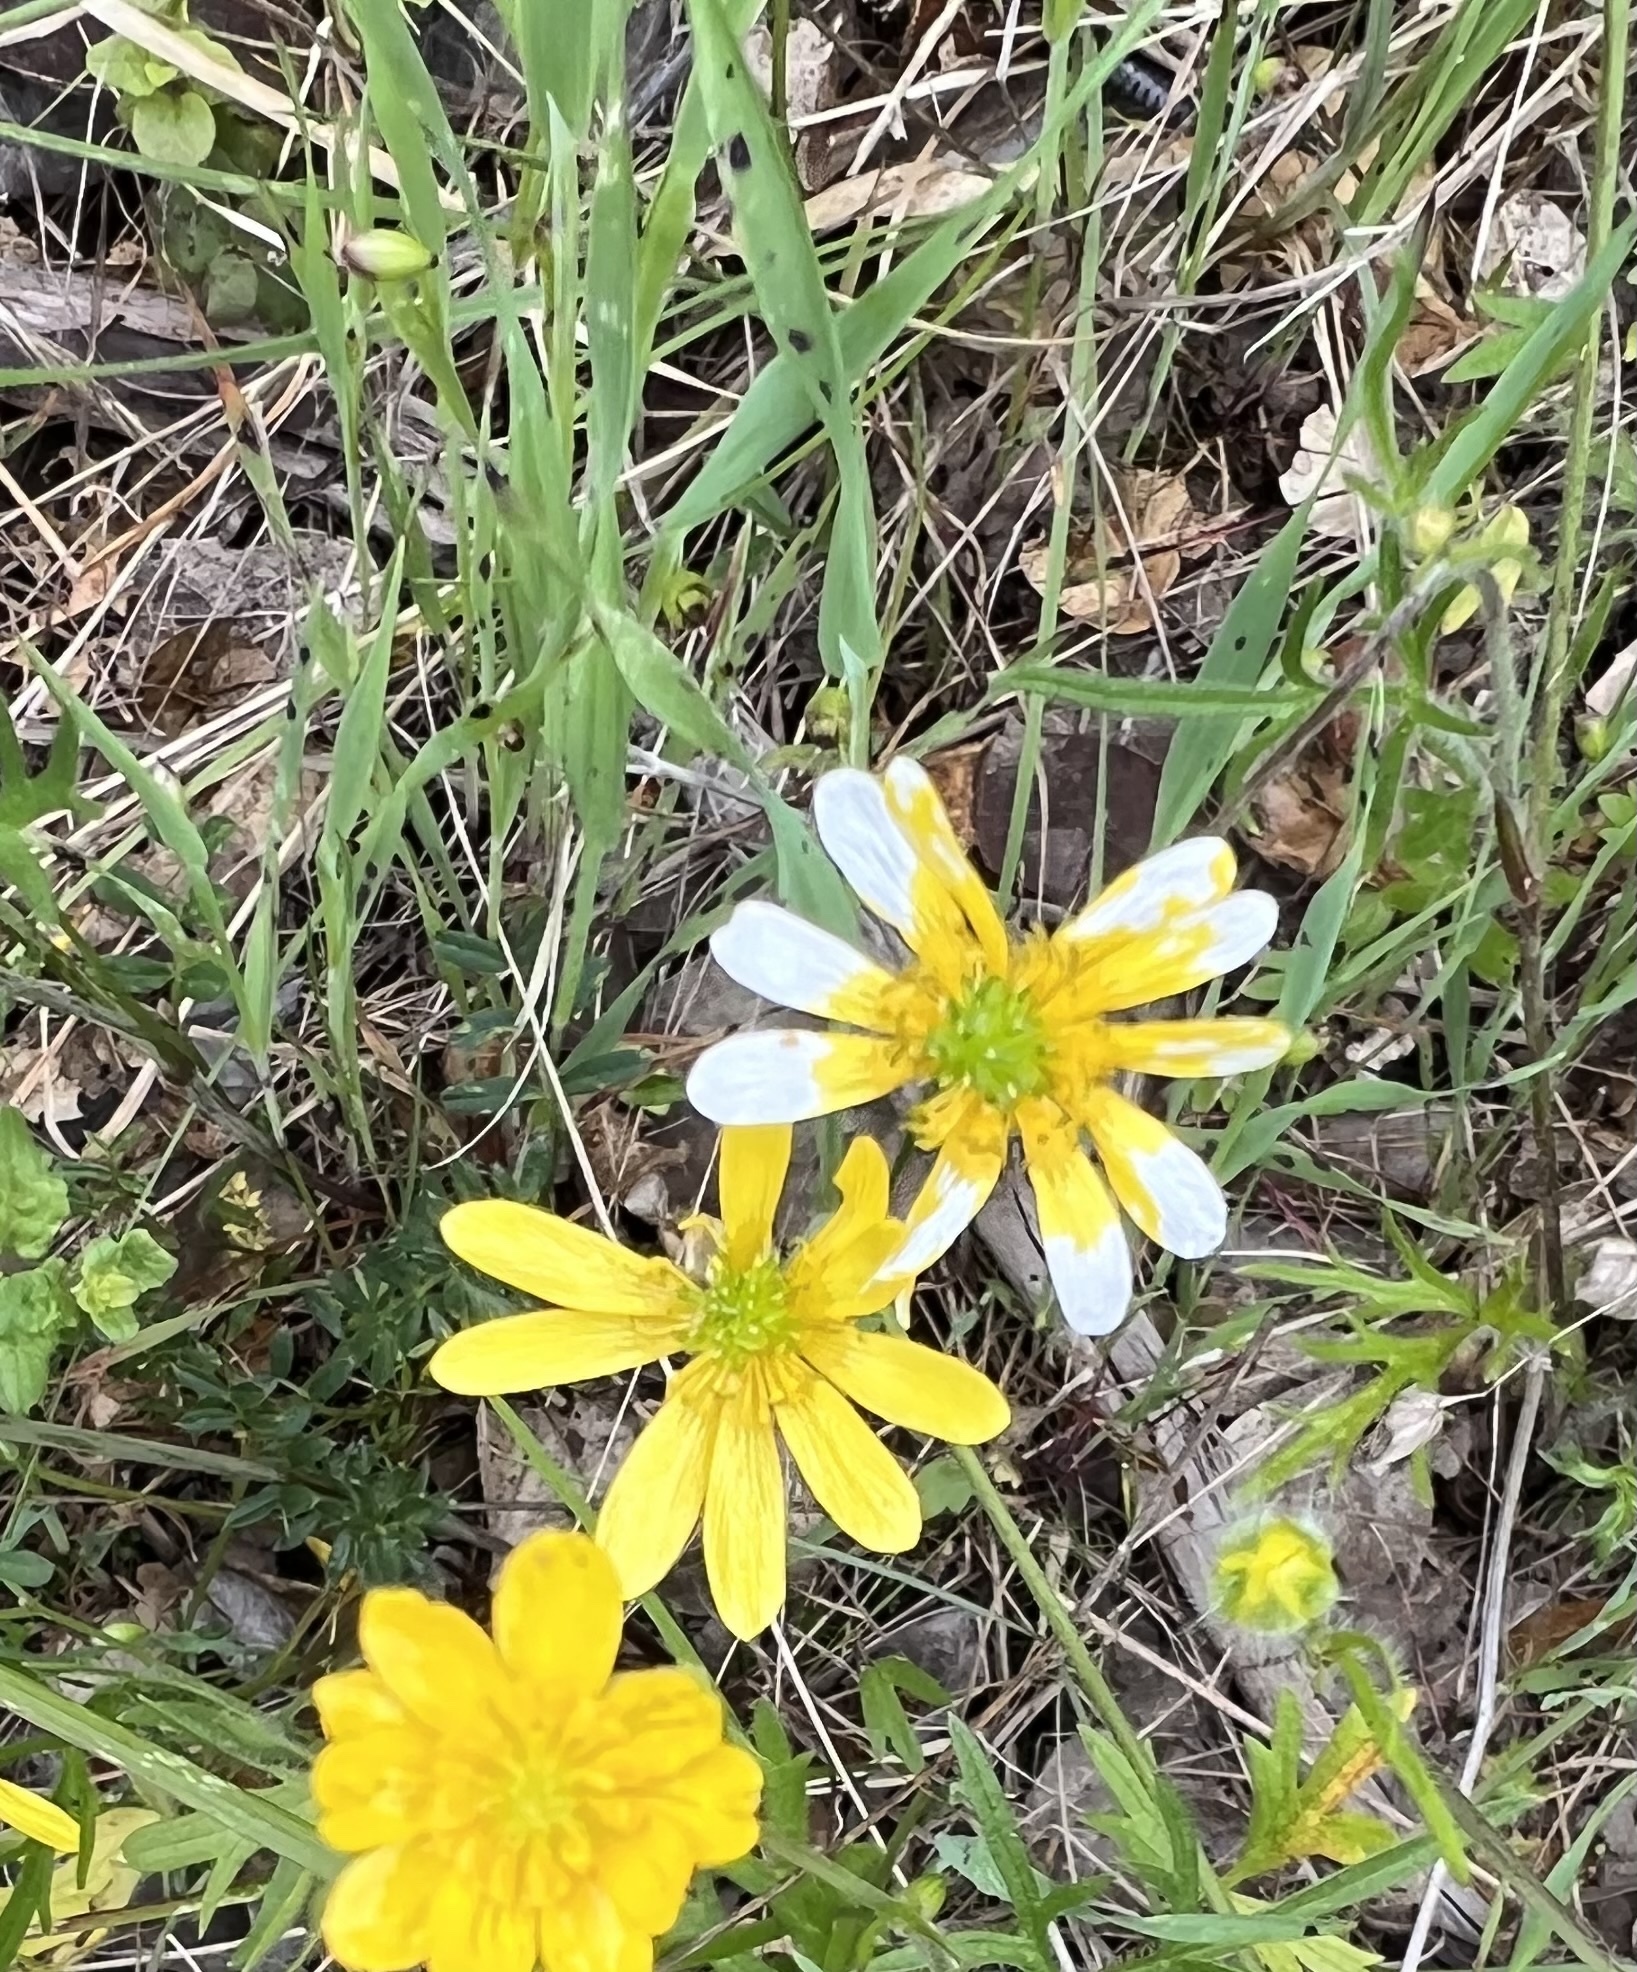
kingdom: Plantae
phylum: Tracheophyta
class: Magnoliopsida
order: Ranunculales
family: Ranunculaceae
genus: Ranunculus
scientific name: Ranunculus californicus
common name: California buttercup
